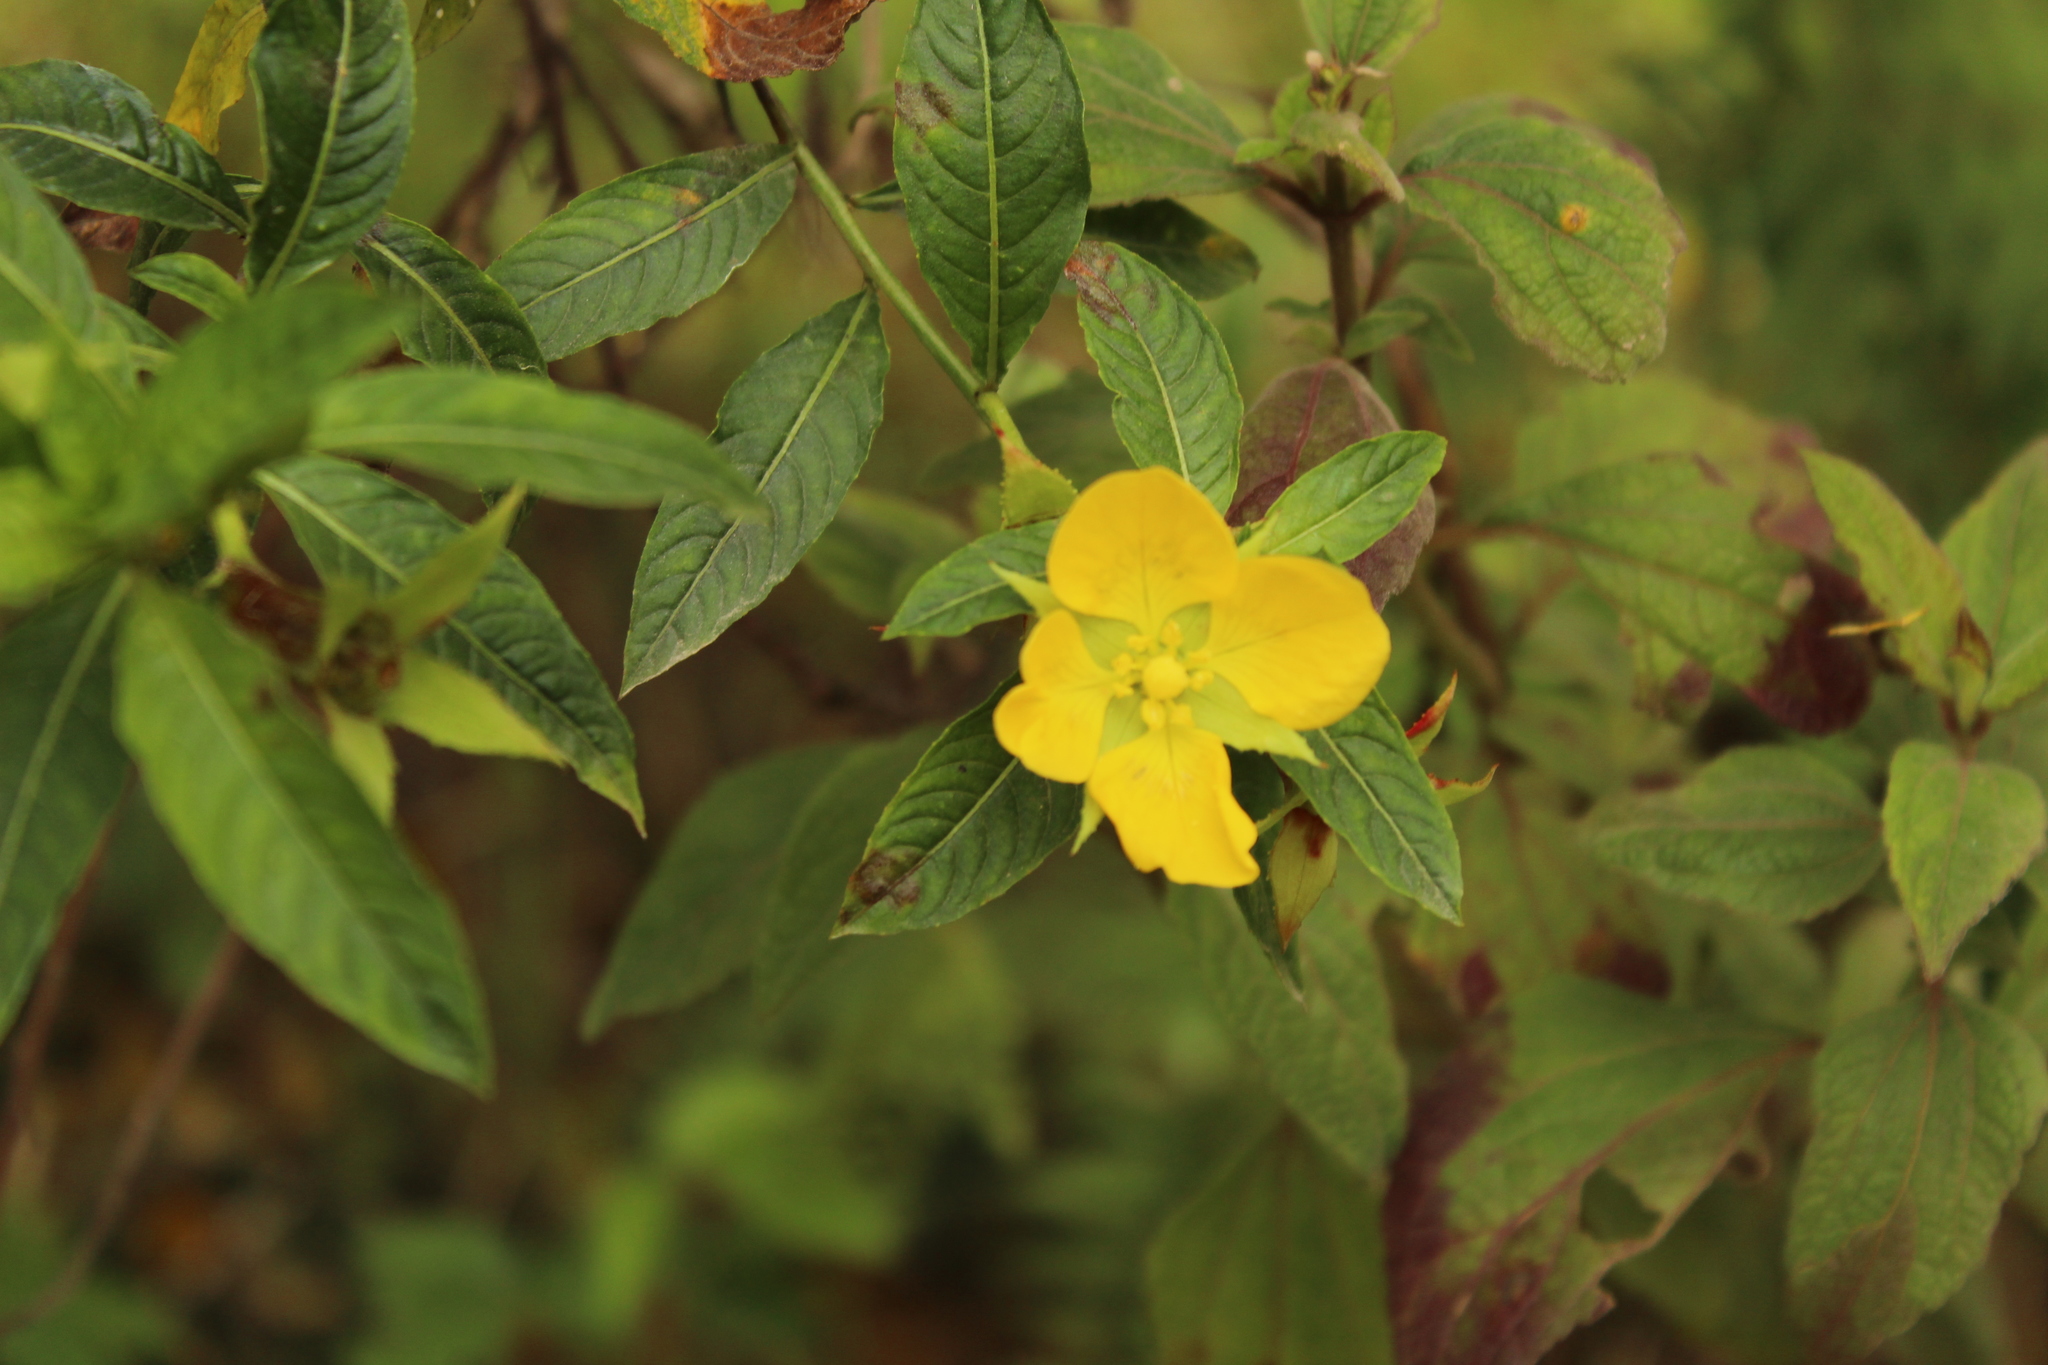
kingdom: Plantae
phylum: Tracheophyta
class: Magnoliopsida
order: Myrtales
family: Onagraceae
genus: Ludwigia
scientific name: Ludwigia peruviana
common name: Peruvian primrose-willow
